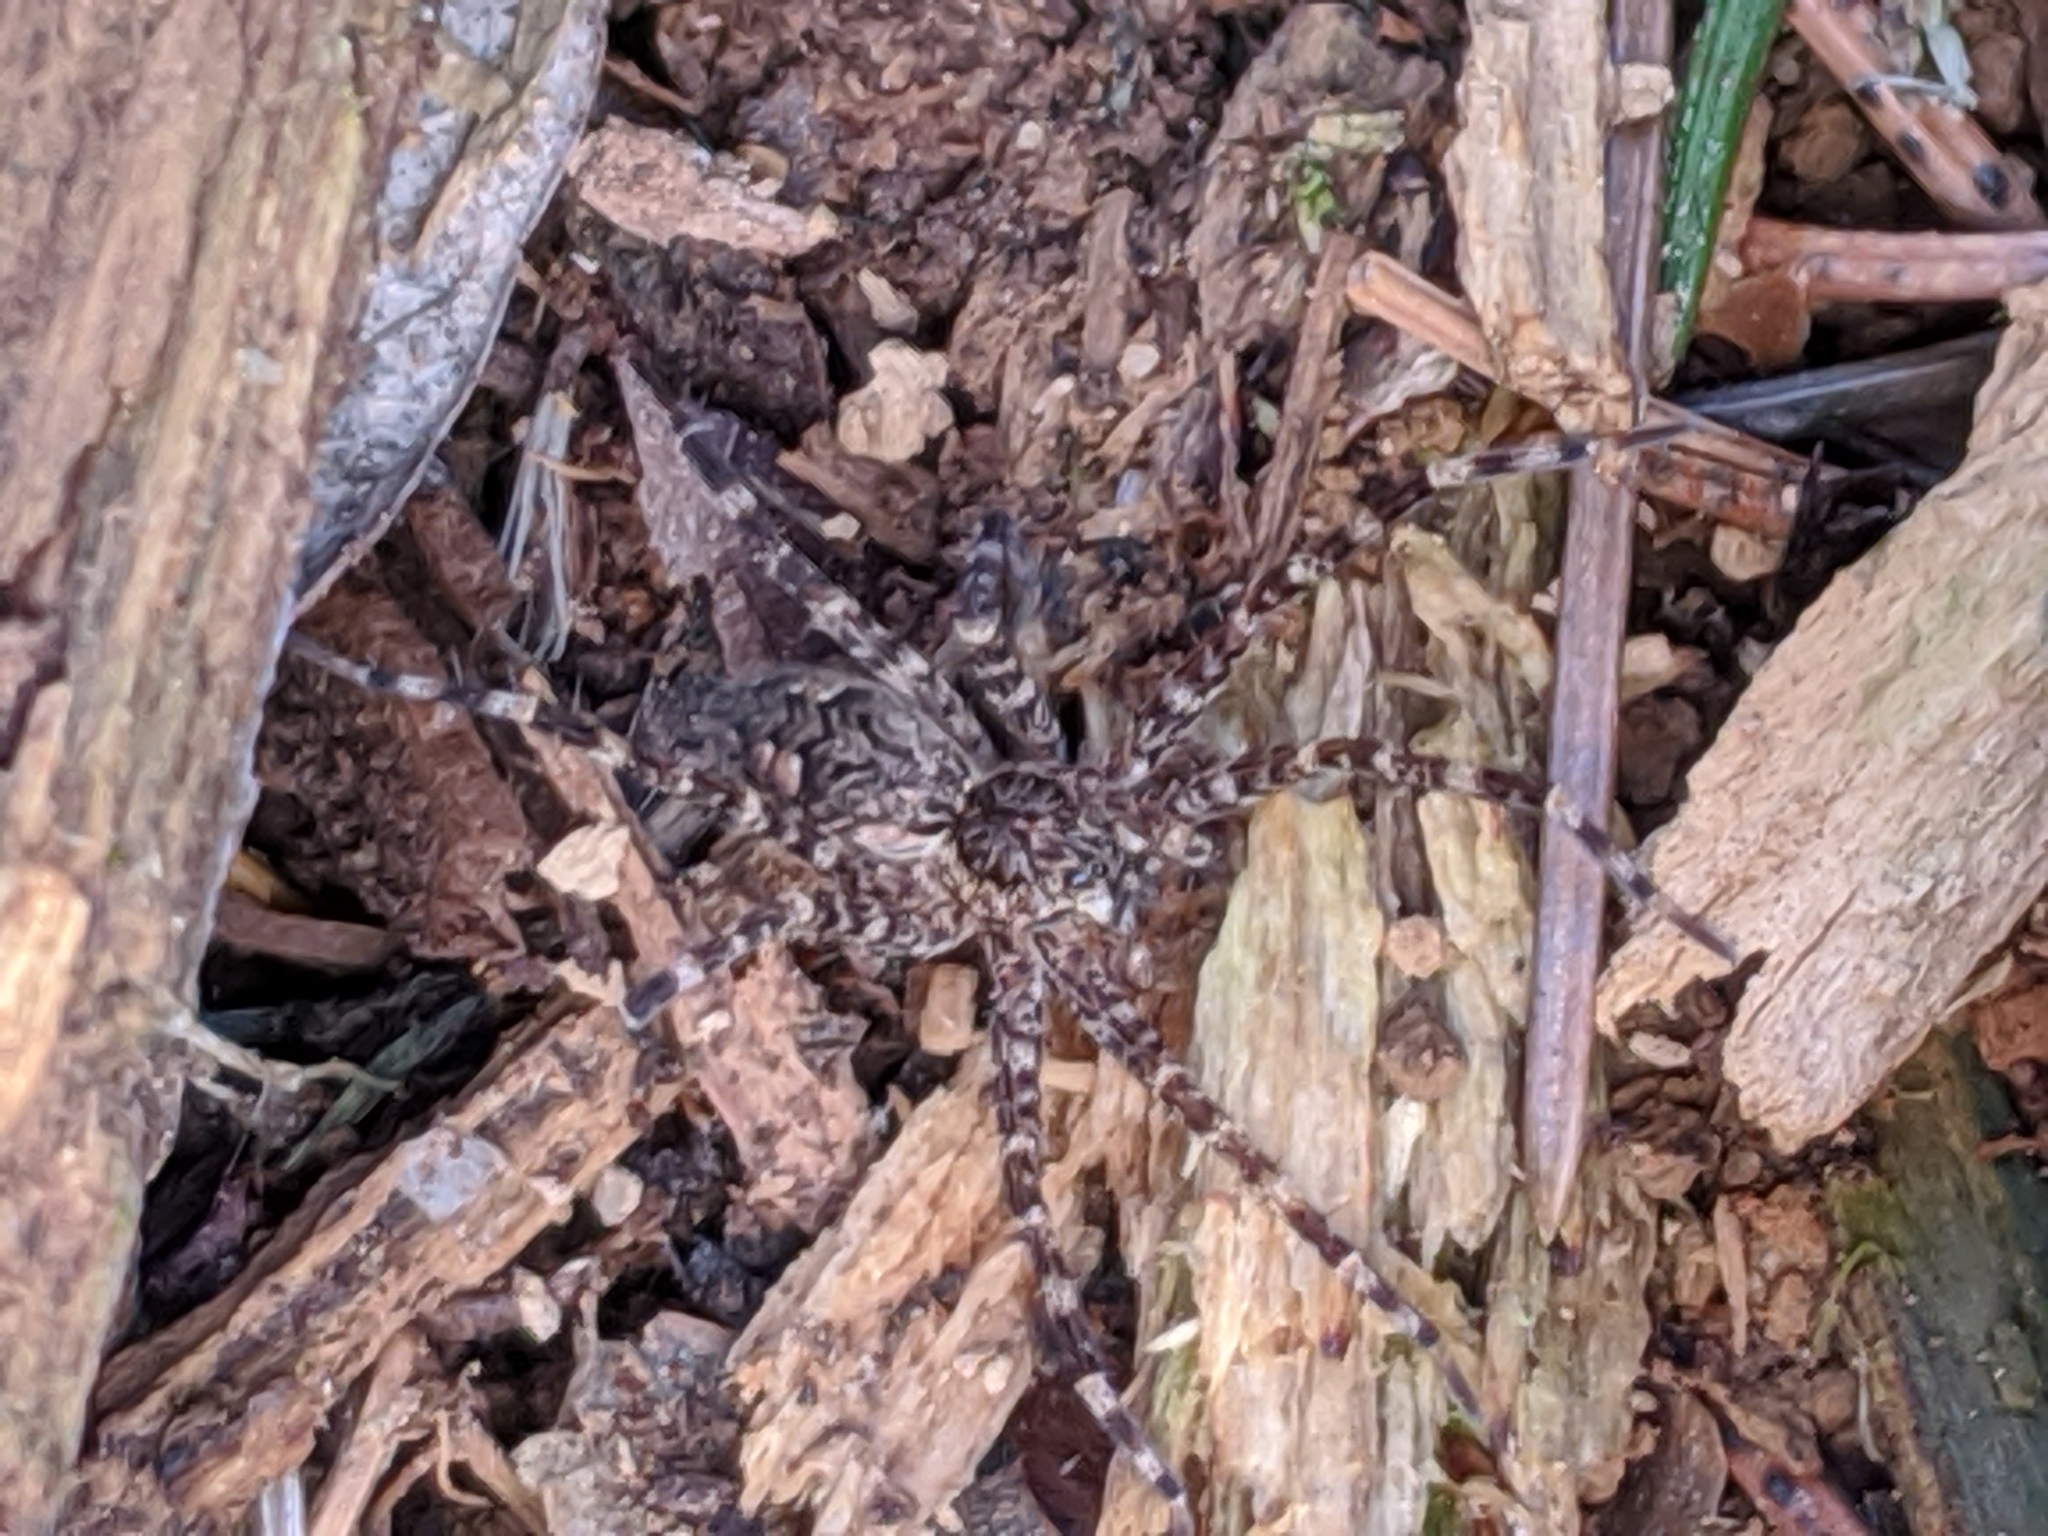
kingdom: Animalia
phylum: Arthropoda
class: Arachnida
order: Araneae
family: Pisauridae
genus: Dolomedes
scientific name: Dolomedes tenebrosus
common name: Dark fishing spider
